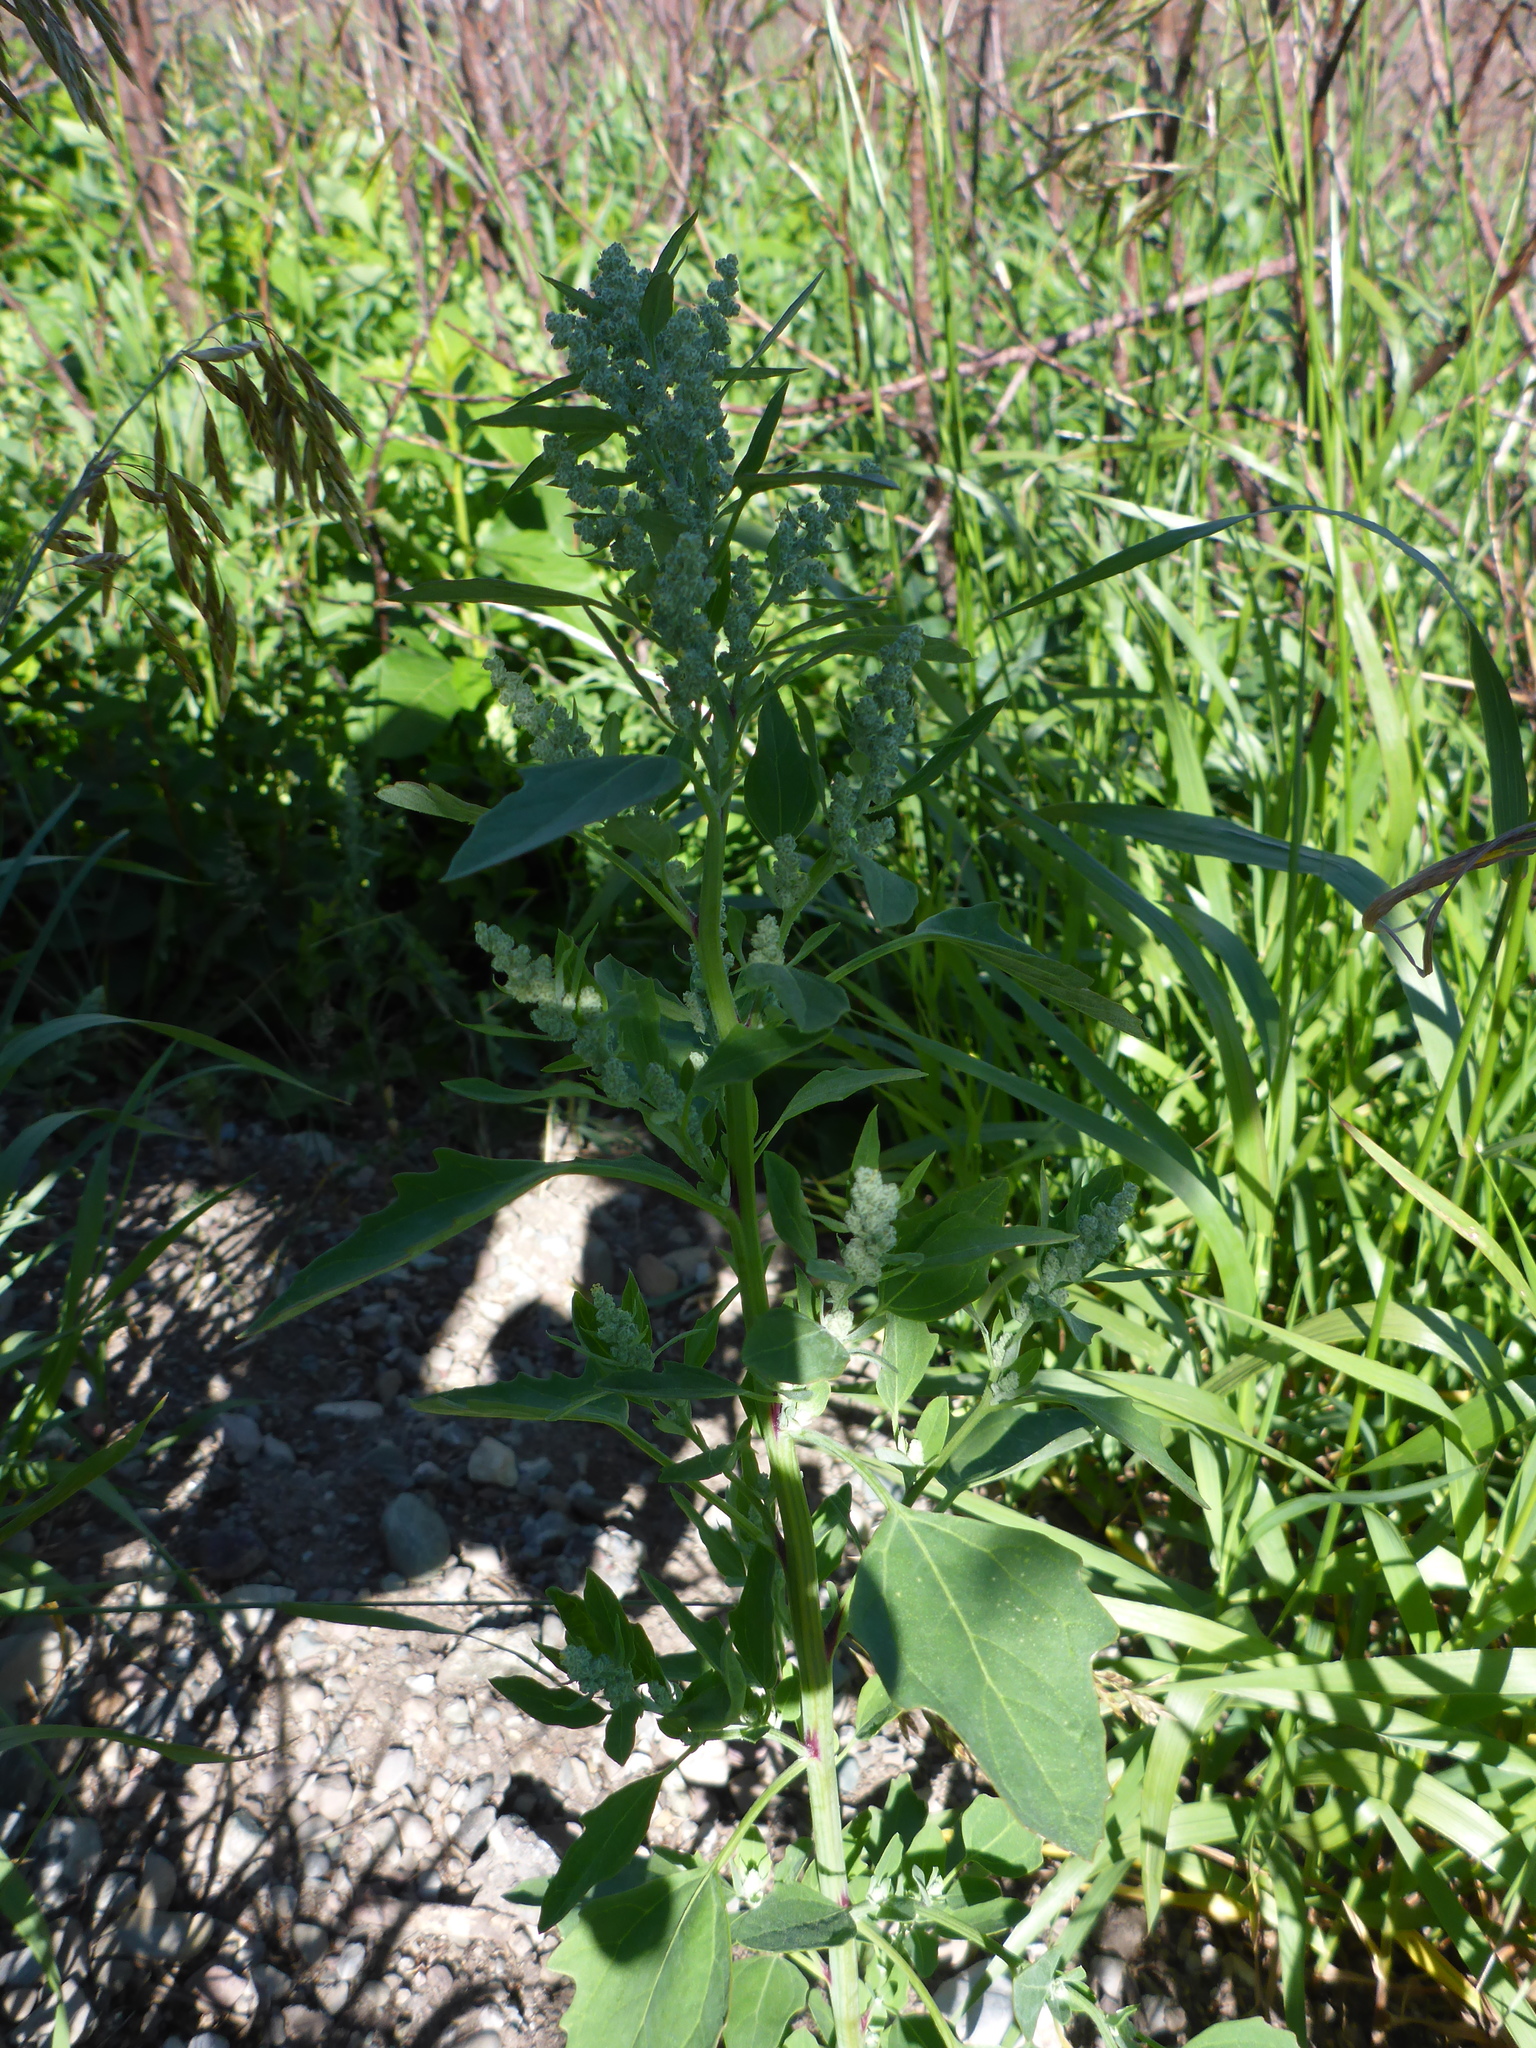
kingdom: Plantae
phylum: Tracheophyta
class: Magnoliopsida
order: Caryophyllales
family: Amaranthaceae
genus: Chenopodium
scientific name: Chenopodium album
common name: Fat-hen
